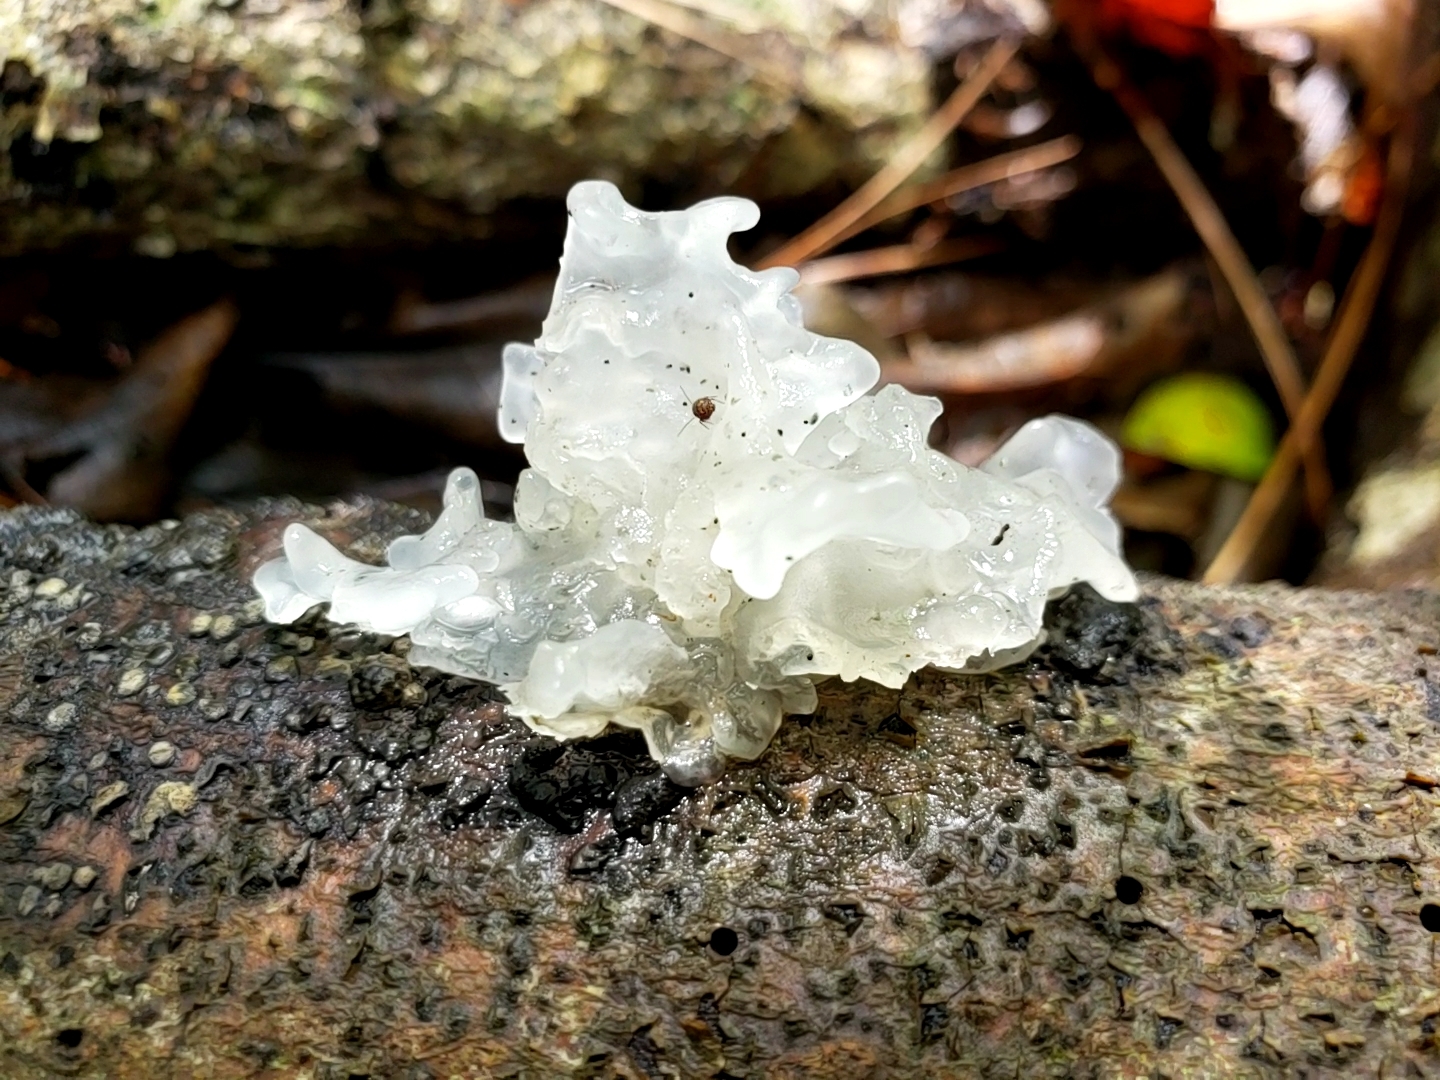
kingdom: Fungi
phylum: Basidiomycota
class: Tremellomycetes
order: Tremellales
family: Tremellaceae
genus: Tremella
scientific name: Tremella fuciformis
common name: Snow fungus
